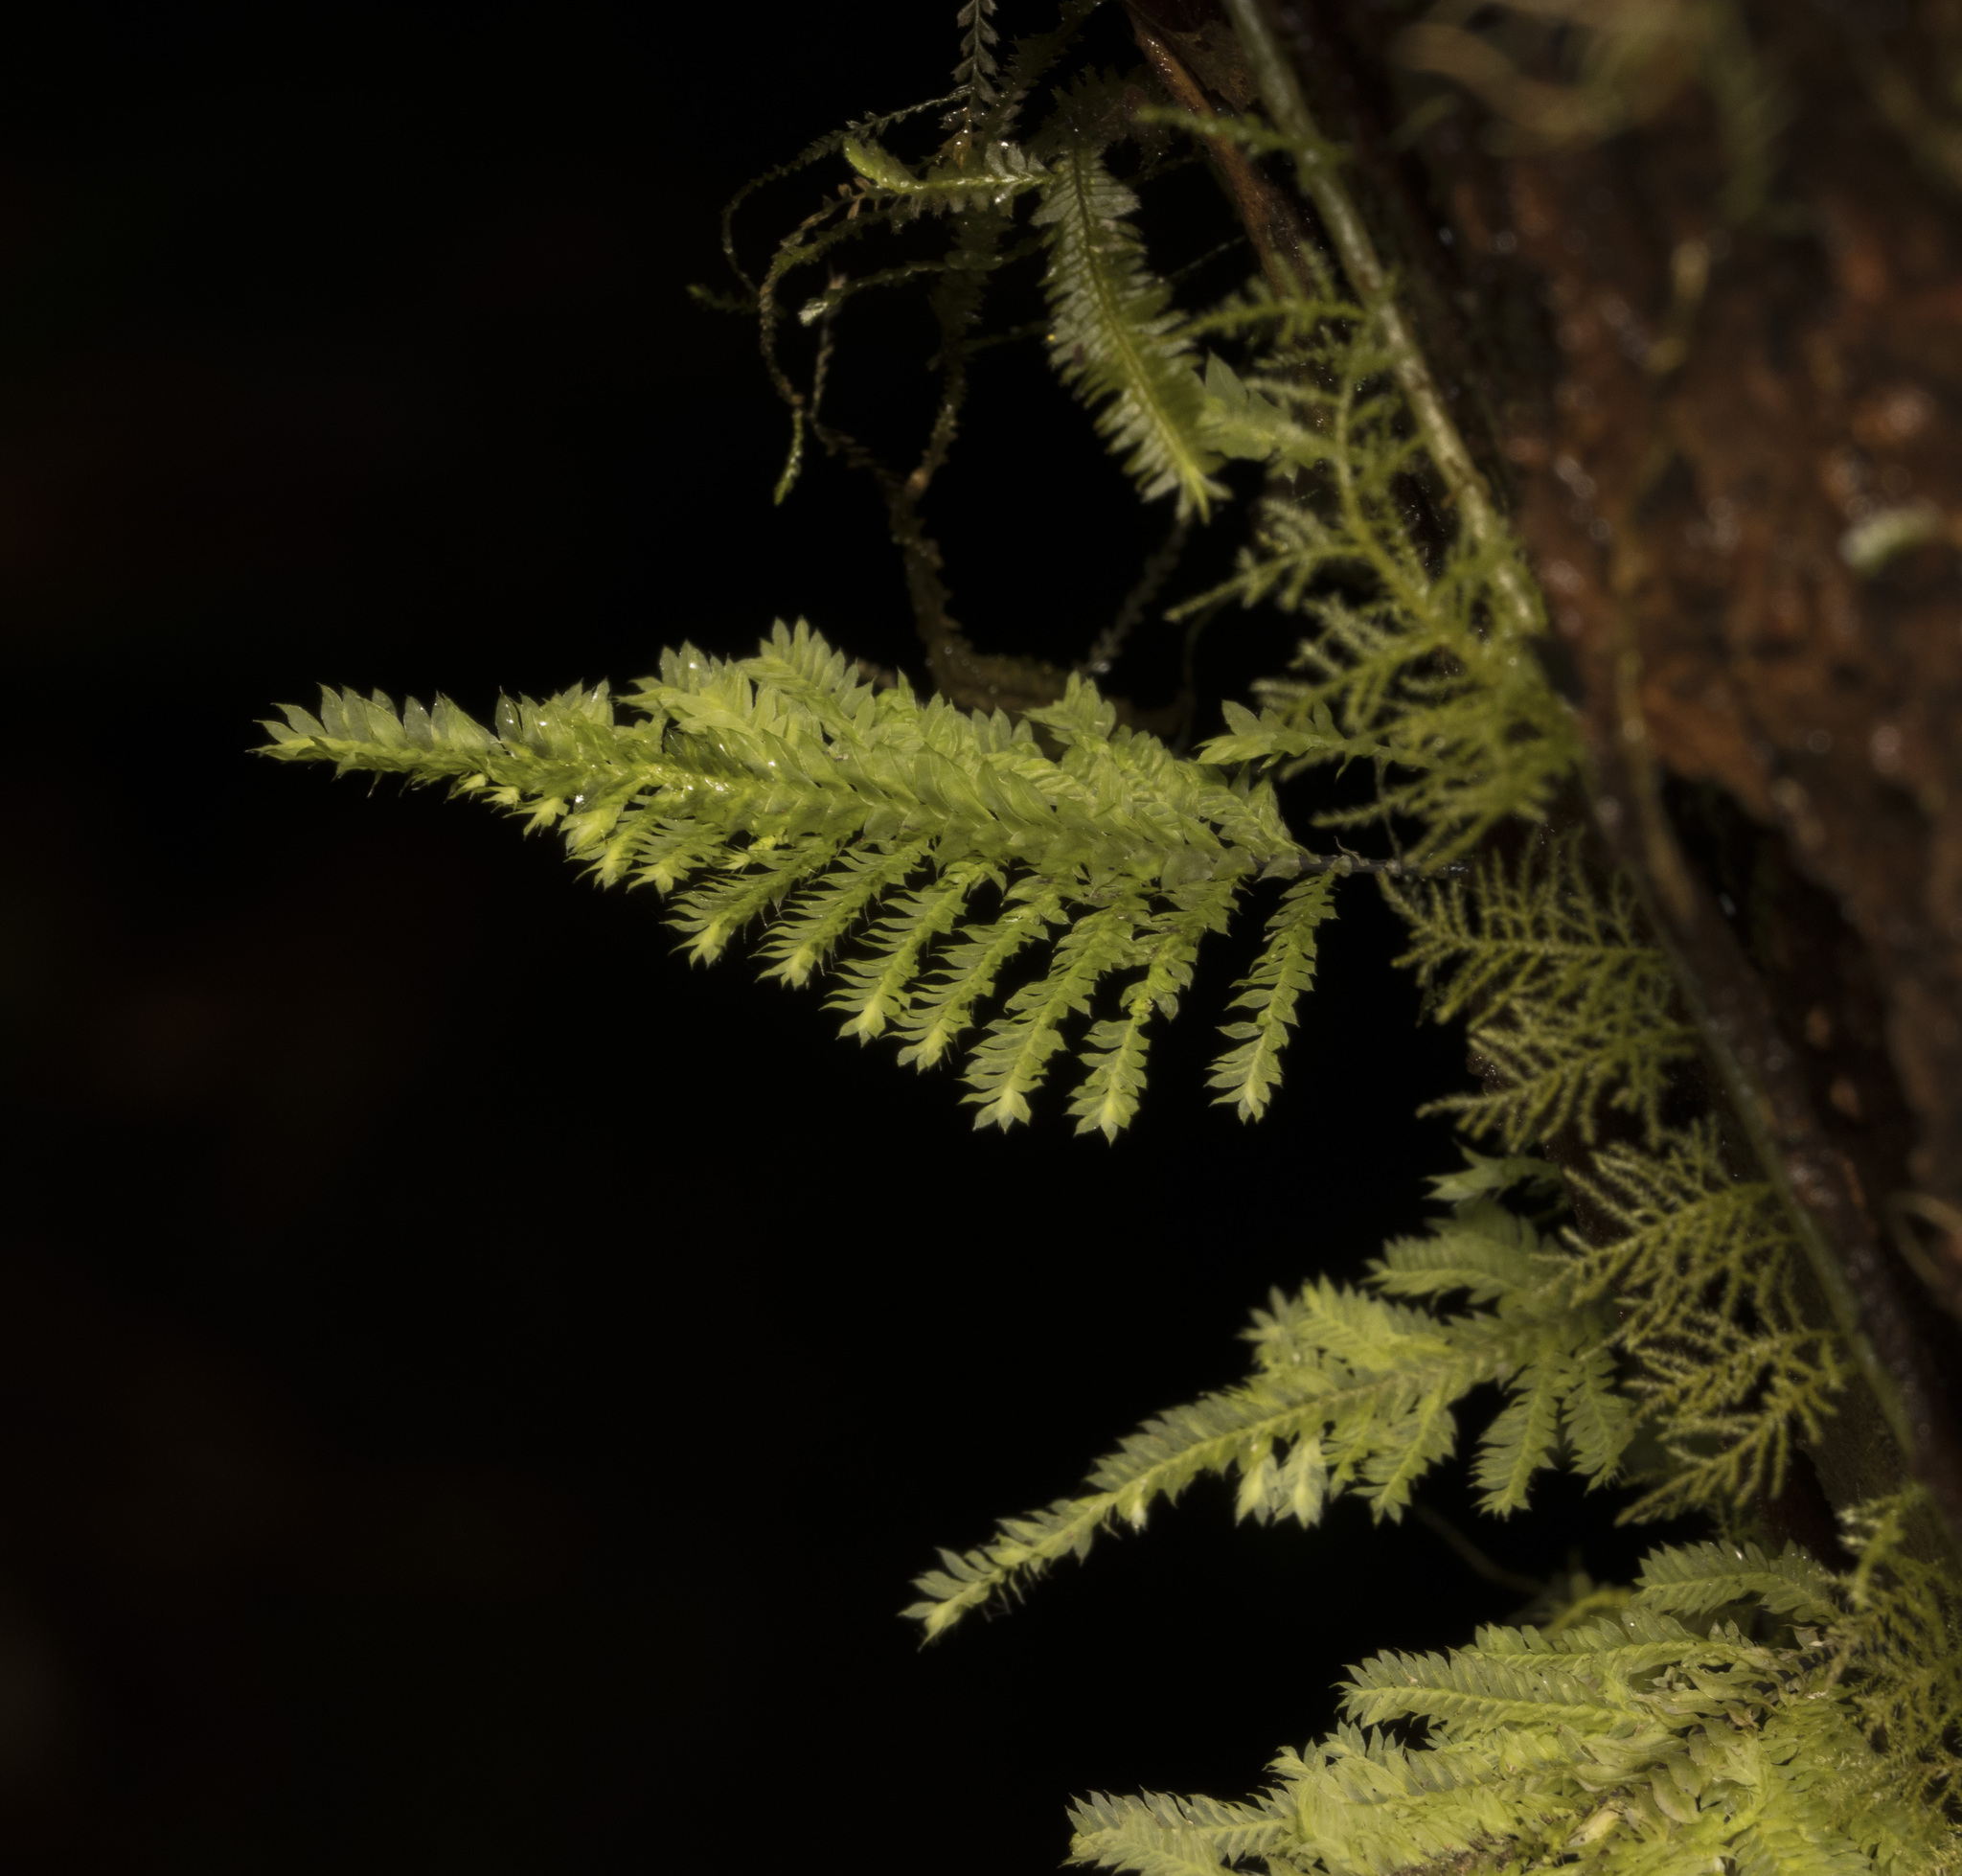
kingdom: Plantae
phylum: Bryophyta
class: Bryopsida
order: Hypopterygiales
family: Hypopterygiaceae
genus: Lopidium
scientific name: Lopidium concinnum
